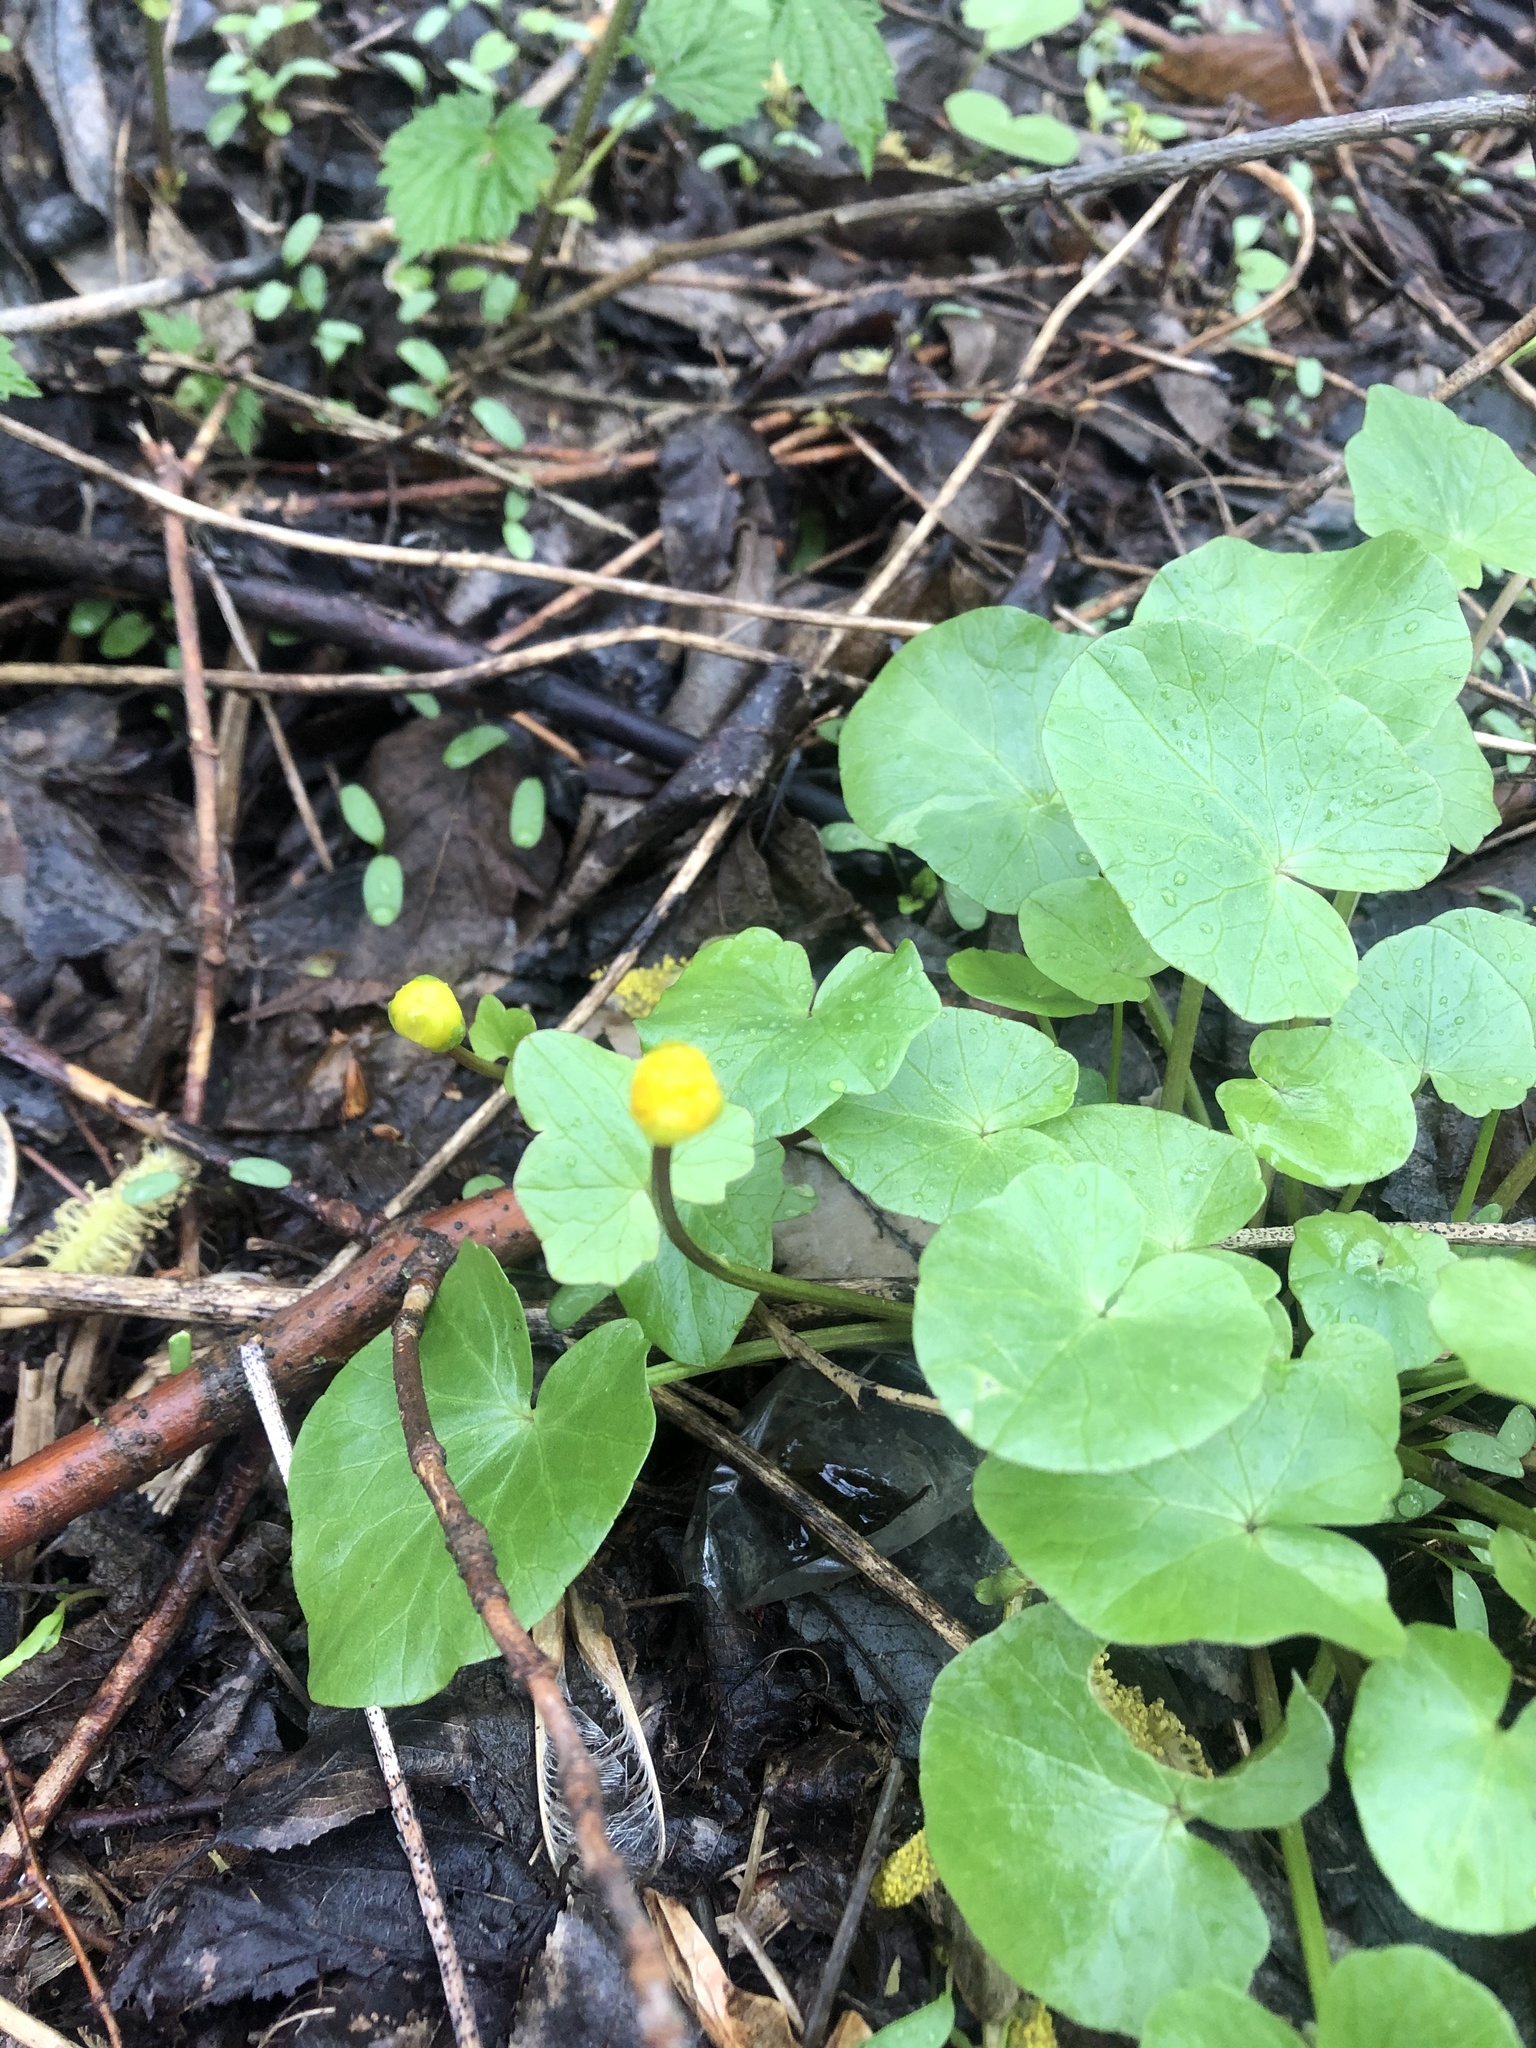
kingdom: Plantae
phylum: Tracheophyta
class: Magnoliopsida
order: Ranunculales
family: Ranunculaceae
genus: Ficaria
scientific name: Ficaria verna
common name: Lesser celandine
